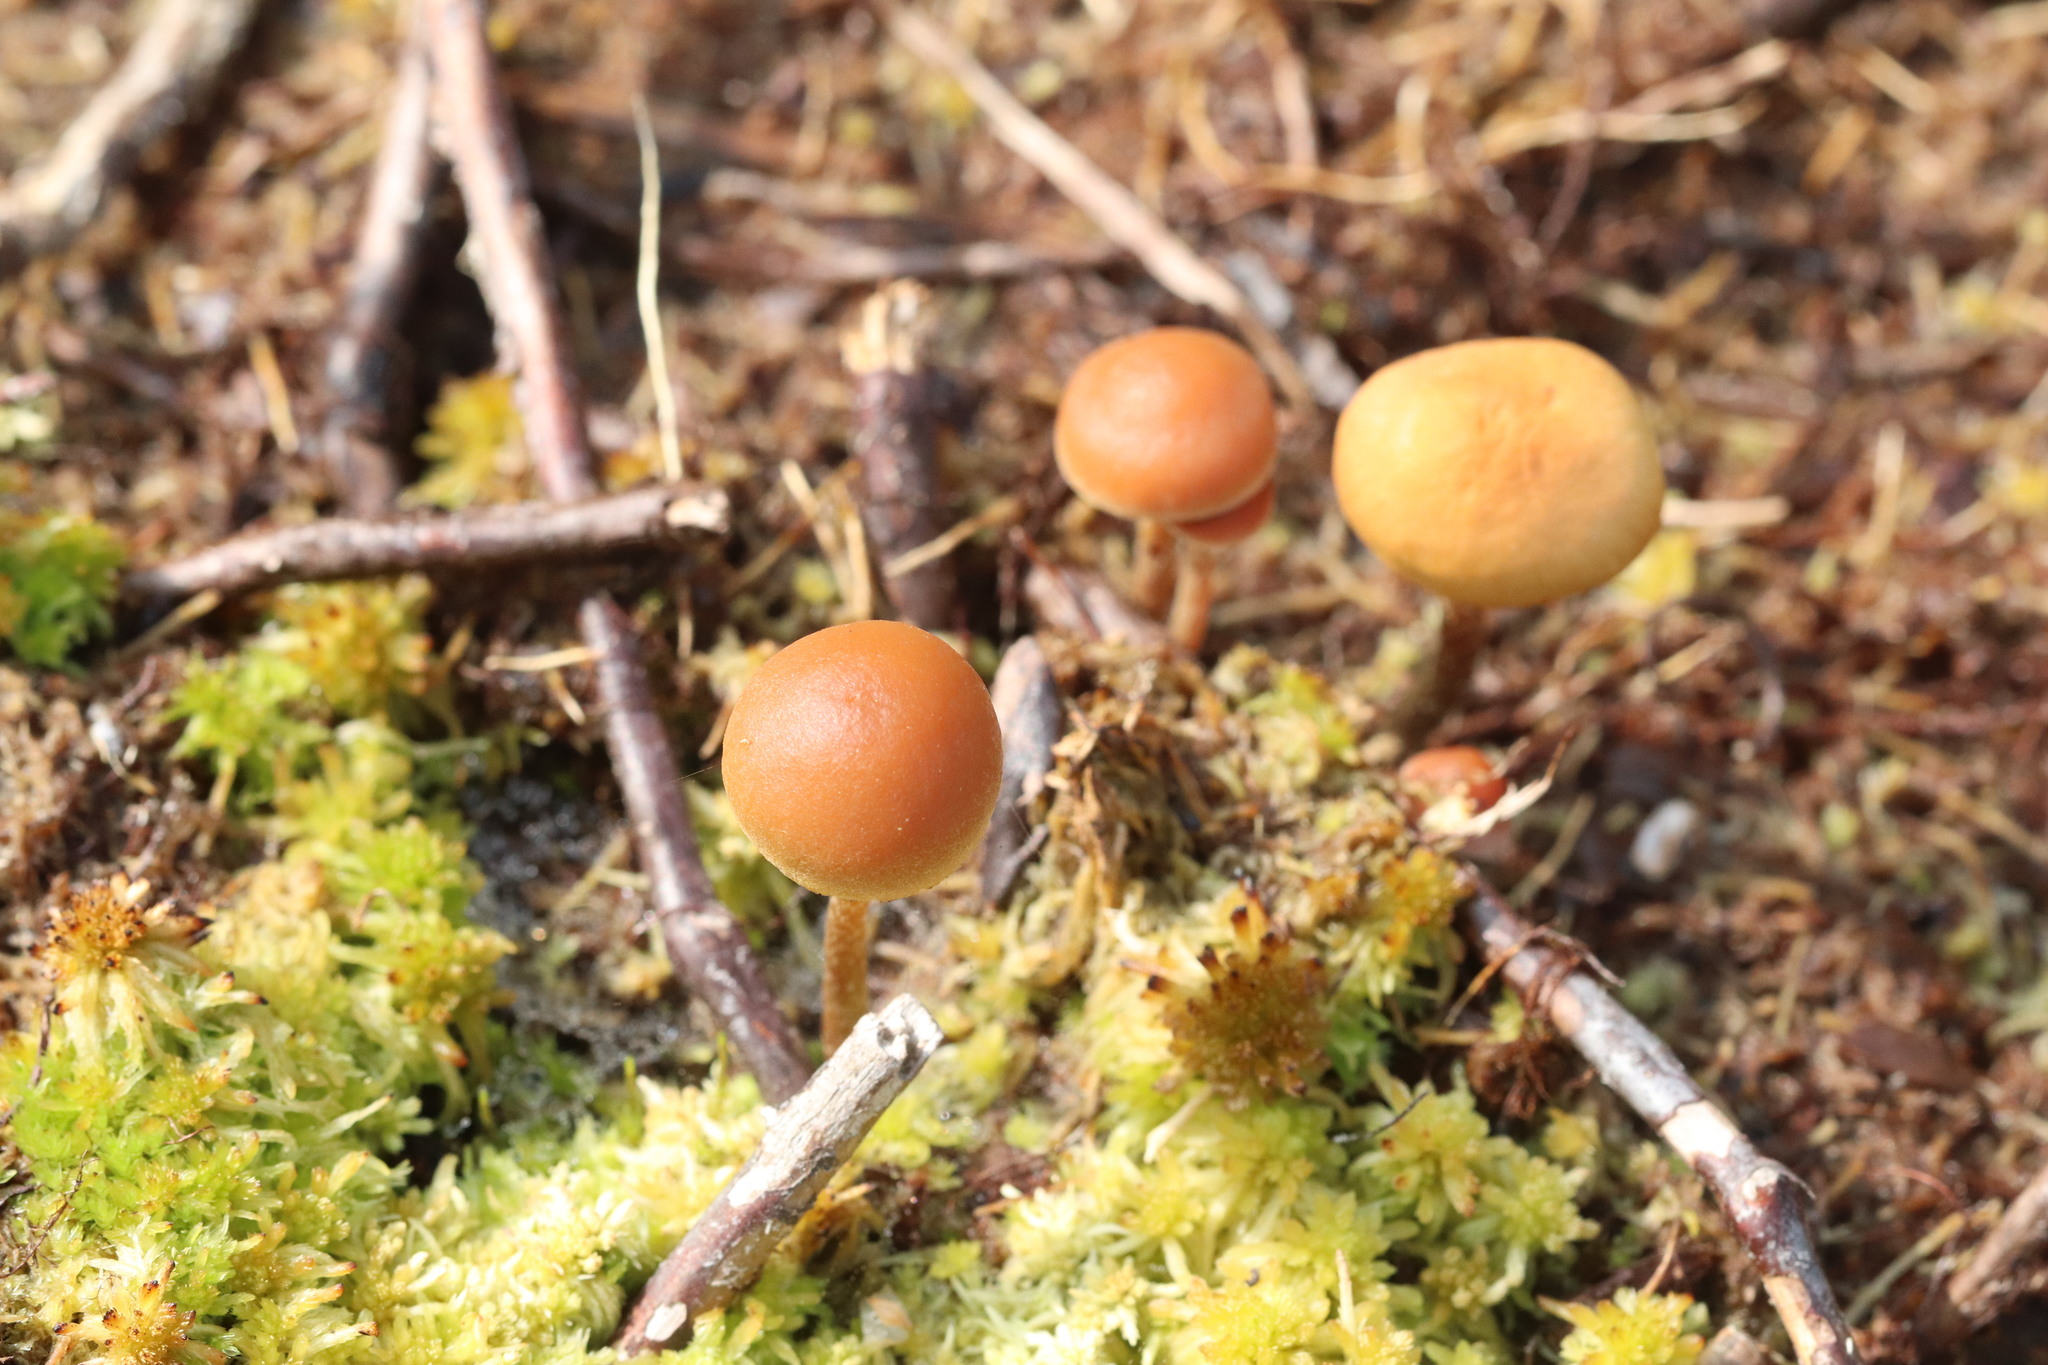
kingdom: Fungi
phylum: Basidiomycota
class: Agaricomycetes
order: Agaricales
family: Strophariaceae
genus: Bogbodia
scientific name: Bogbodia uda
